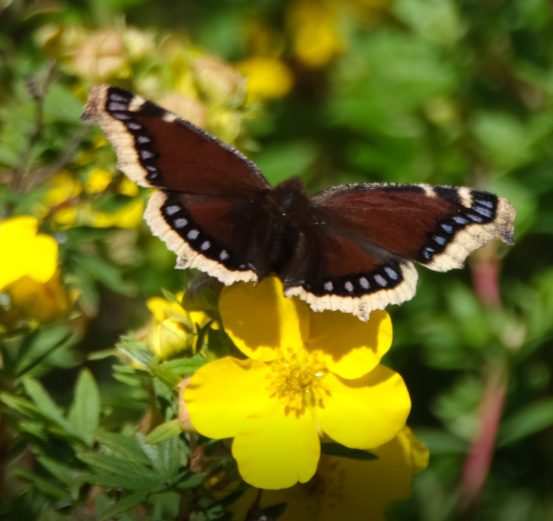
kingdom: Animalia
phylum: Arthropoda
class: Insecta
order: Lepidoptera
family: Nymphalidae
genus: Nymphalis
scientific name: Nymphalis antiopa
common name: Camberwell beauty
